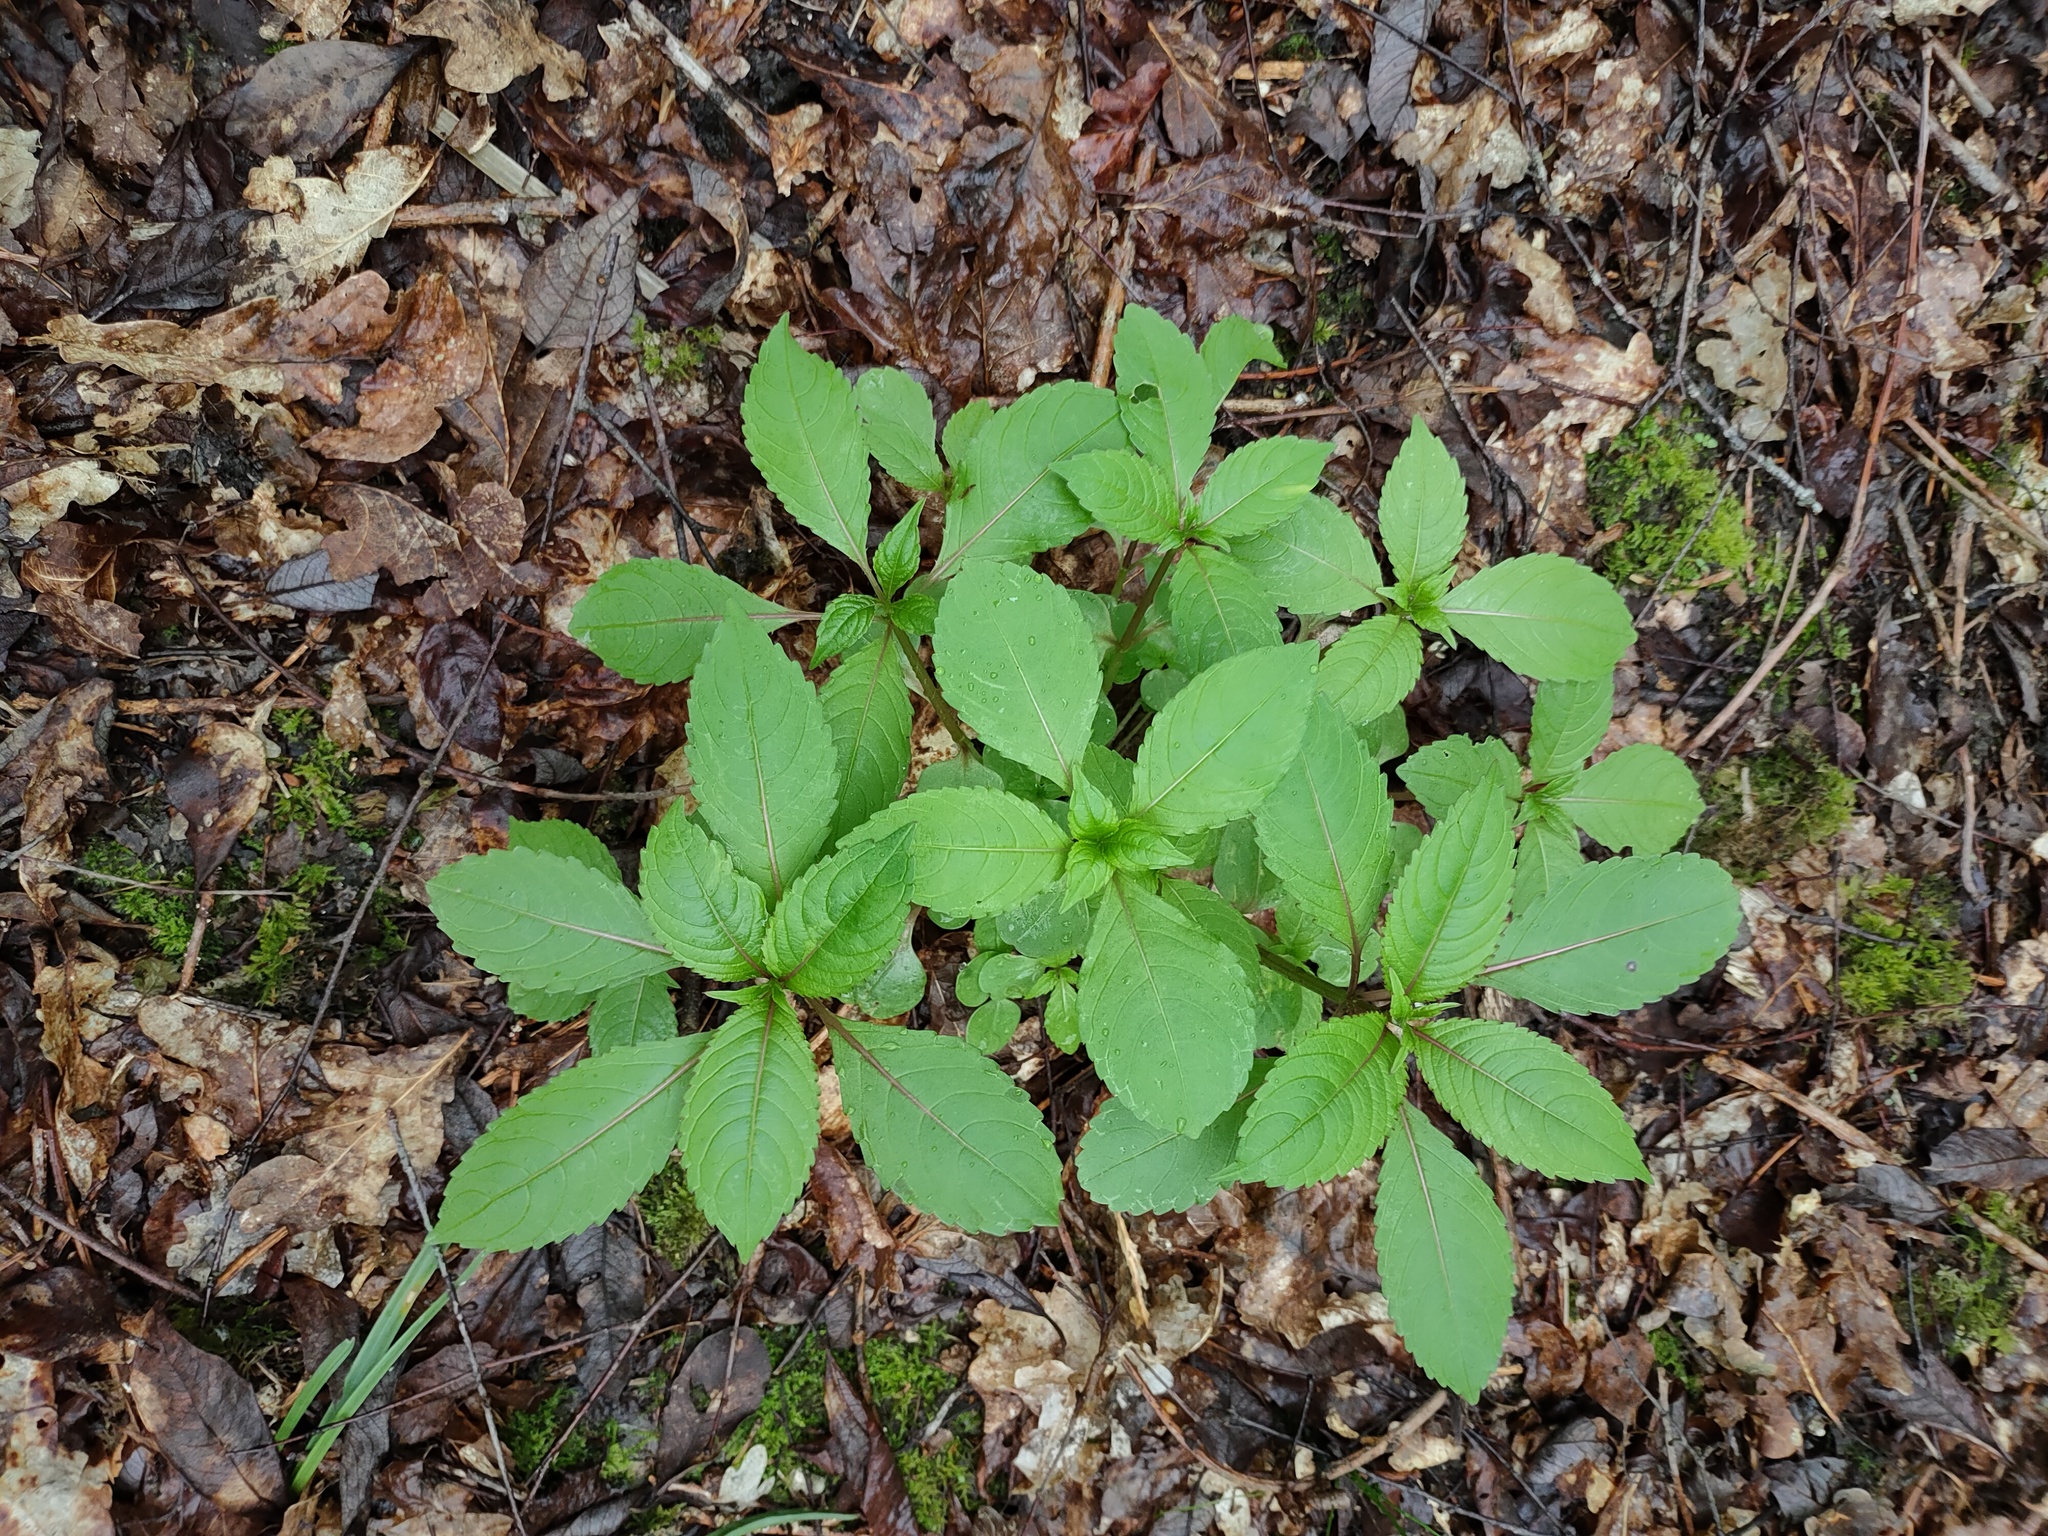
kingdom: Plantae
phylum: Tracheophyta
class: Magnoliopsida
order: Ericales
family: Balsaminaceae
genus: Impatiens
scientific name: Impatiens glandulifera
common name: Himalayan balsam
